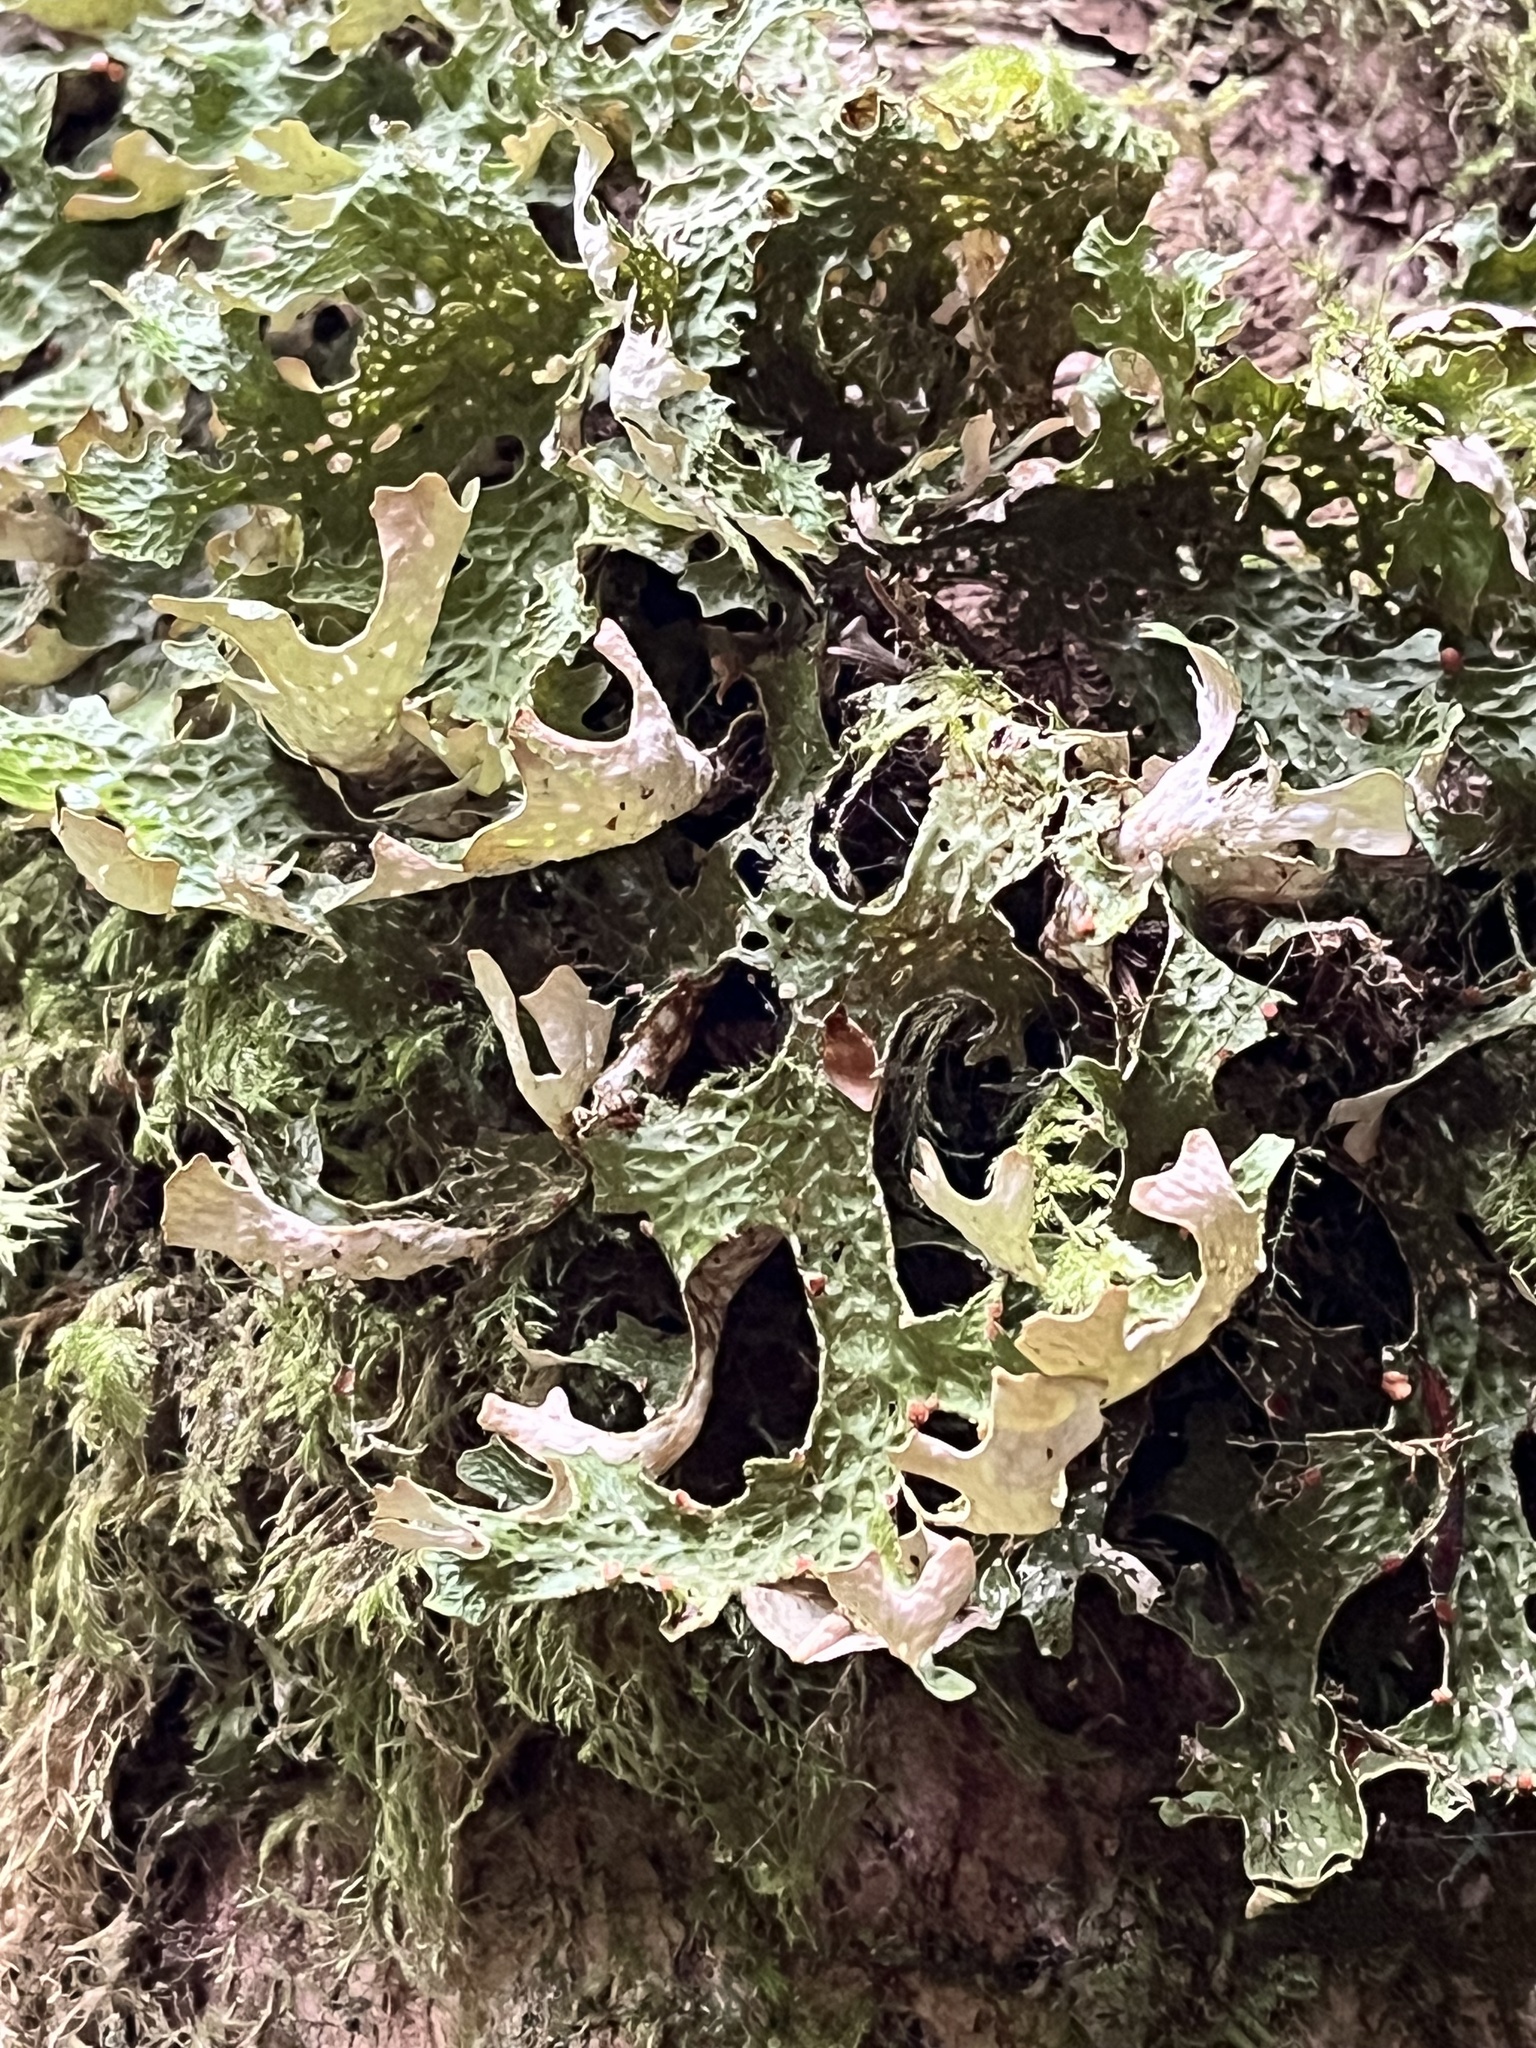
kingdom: Fungi
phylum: Ascomycota
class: Lecanoromycetes
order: Peltigerales
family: Lobariaceae
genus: Lobaria
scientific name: Lobaria pulmonaria
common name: Lungwort
